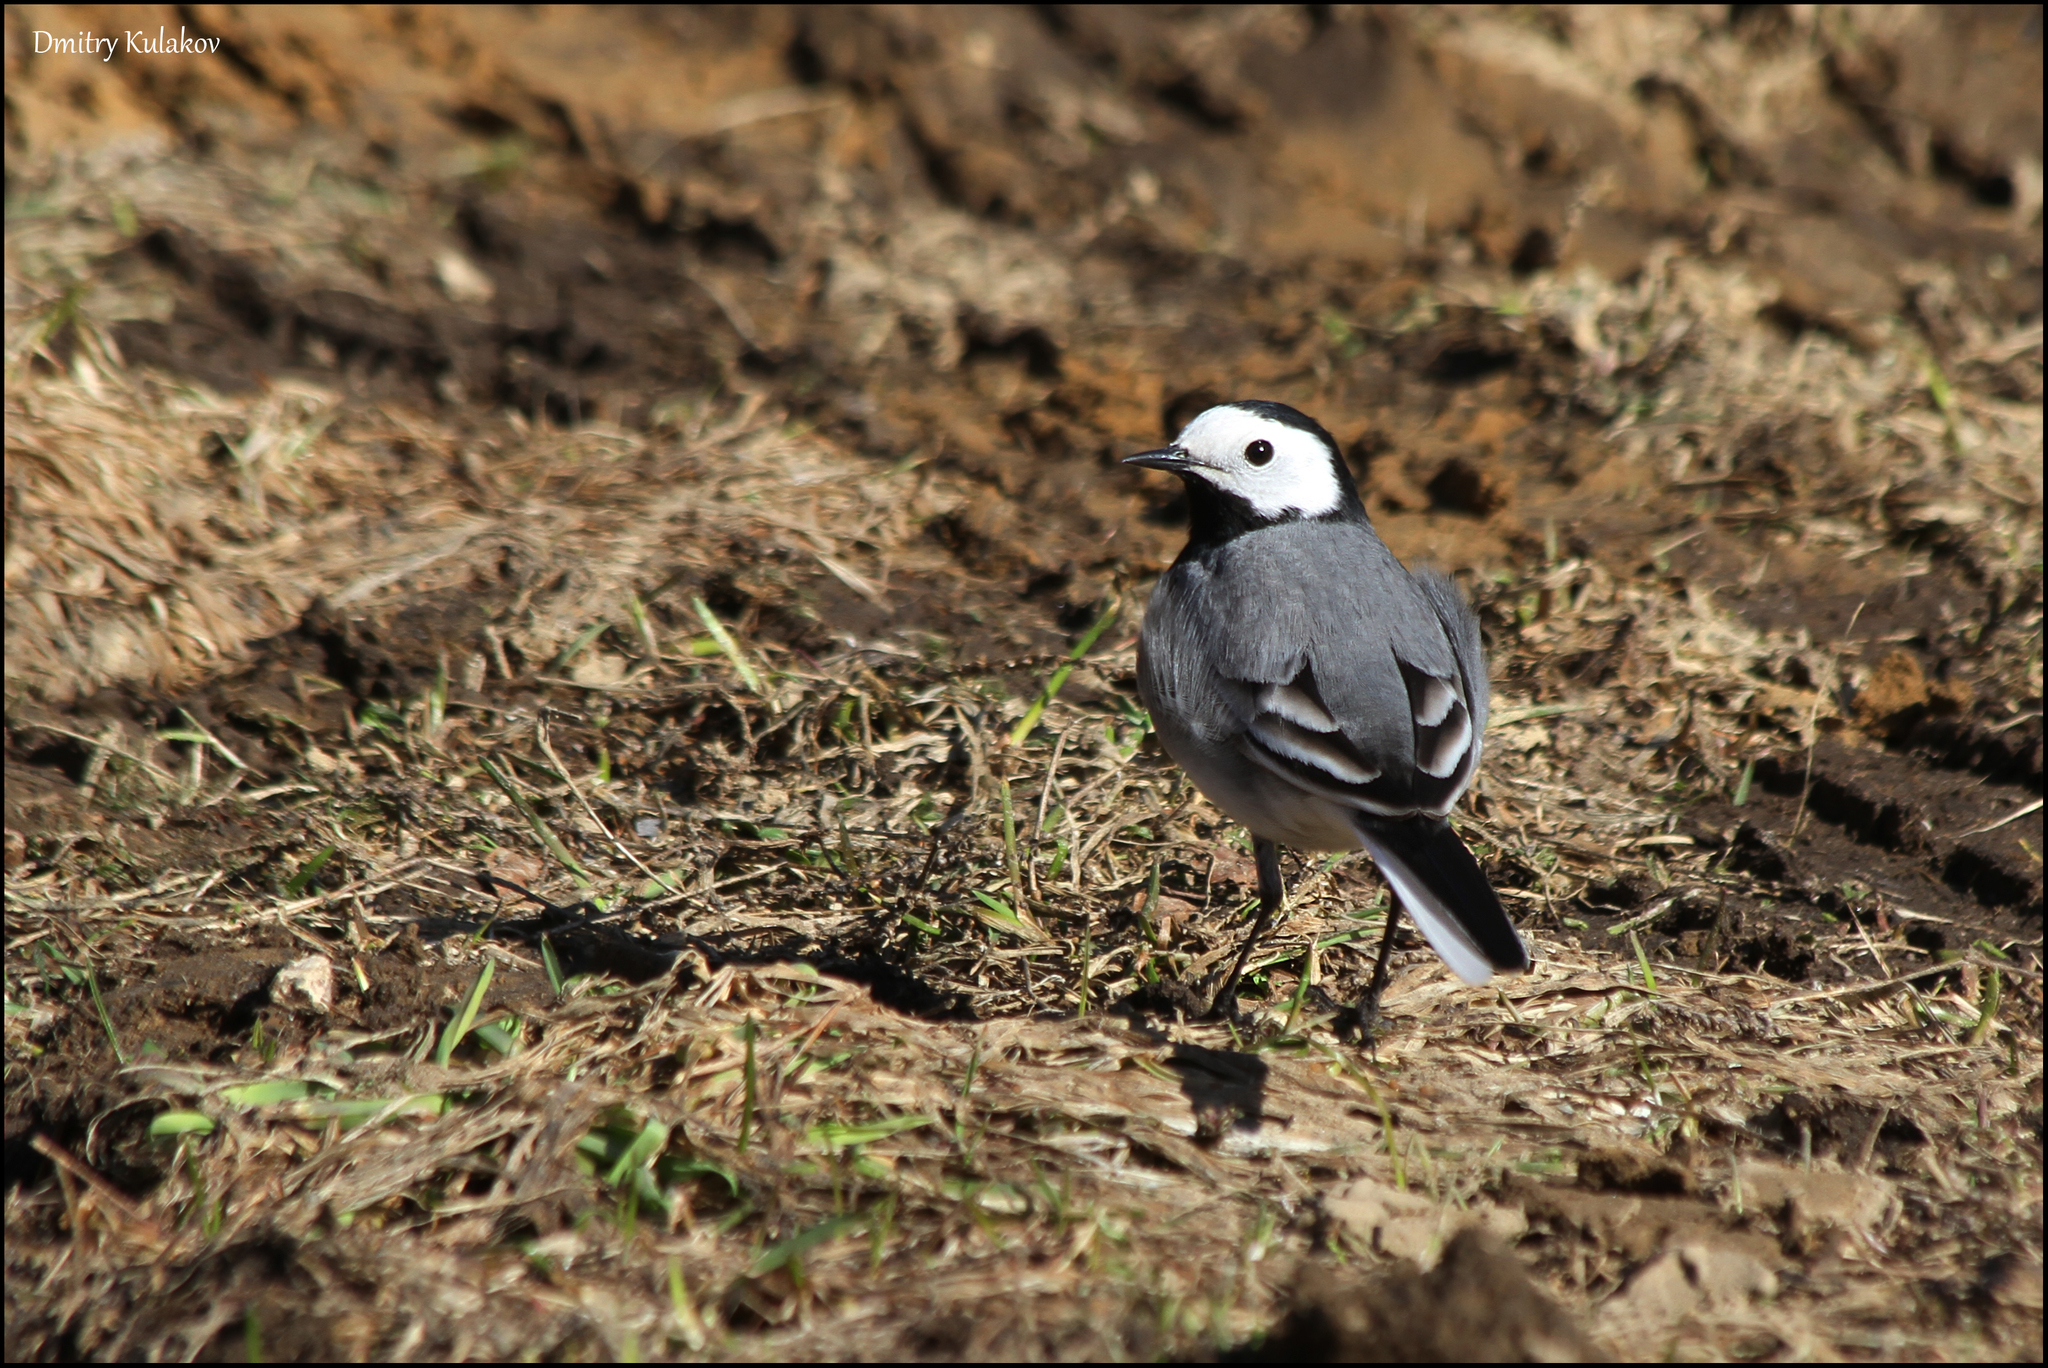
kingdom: Animalia
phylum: Chordata
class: Aves
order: Passeriformes
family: Motacillidae
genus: Motacilla
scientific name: Motacilla alba
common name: White wagtail
